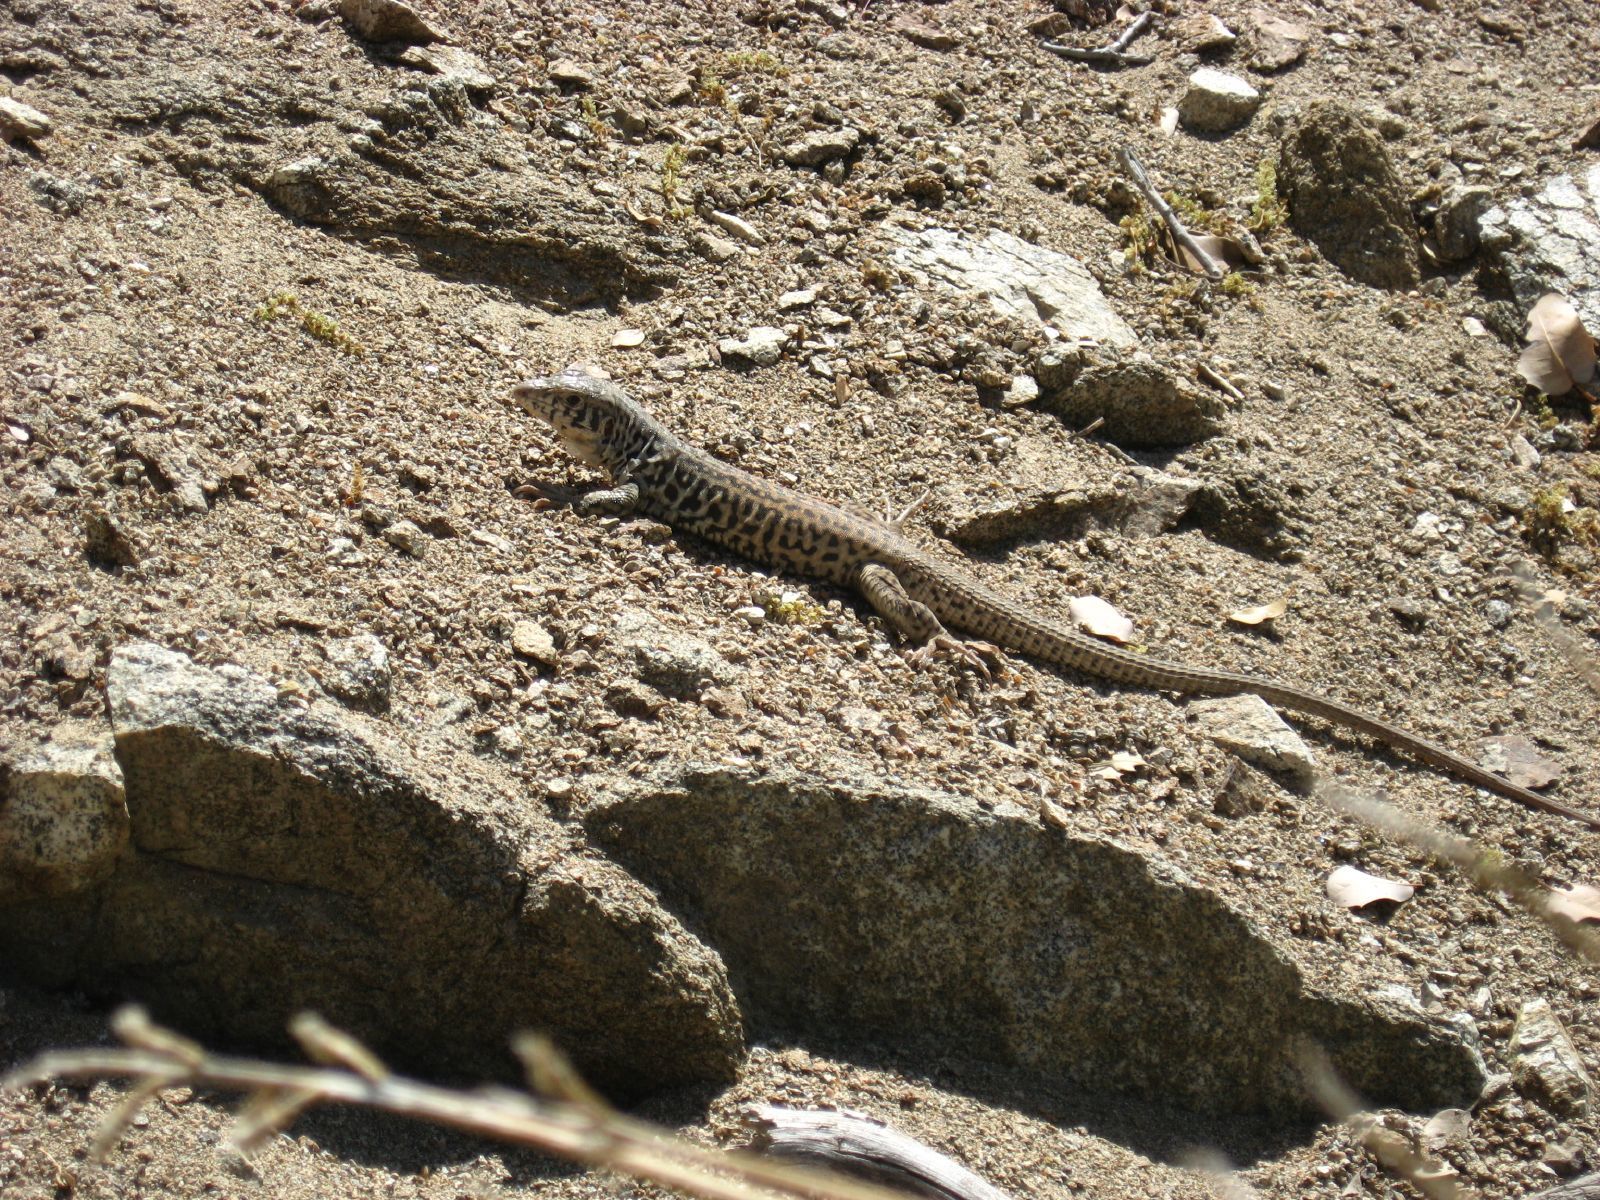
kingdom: Animalia
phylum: Chordata
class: Squamata
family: Teiidae
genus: Aspidoscelis
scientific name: Aspidoscelis tigris
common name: Tiger whiptail
